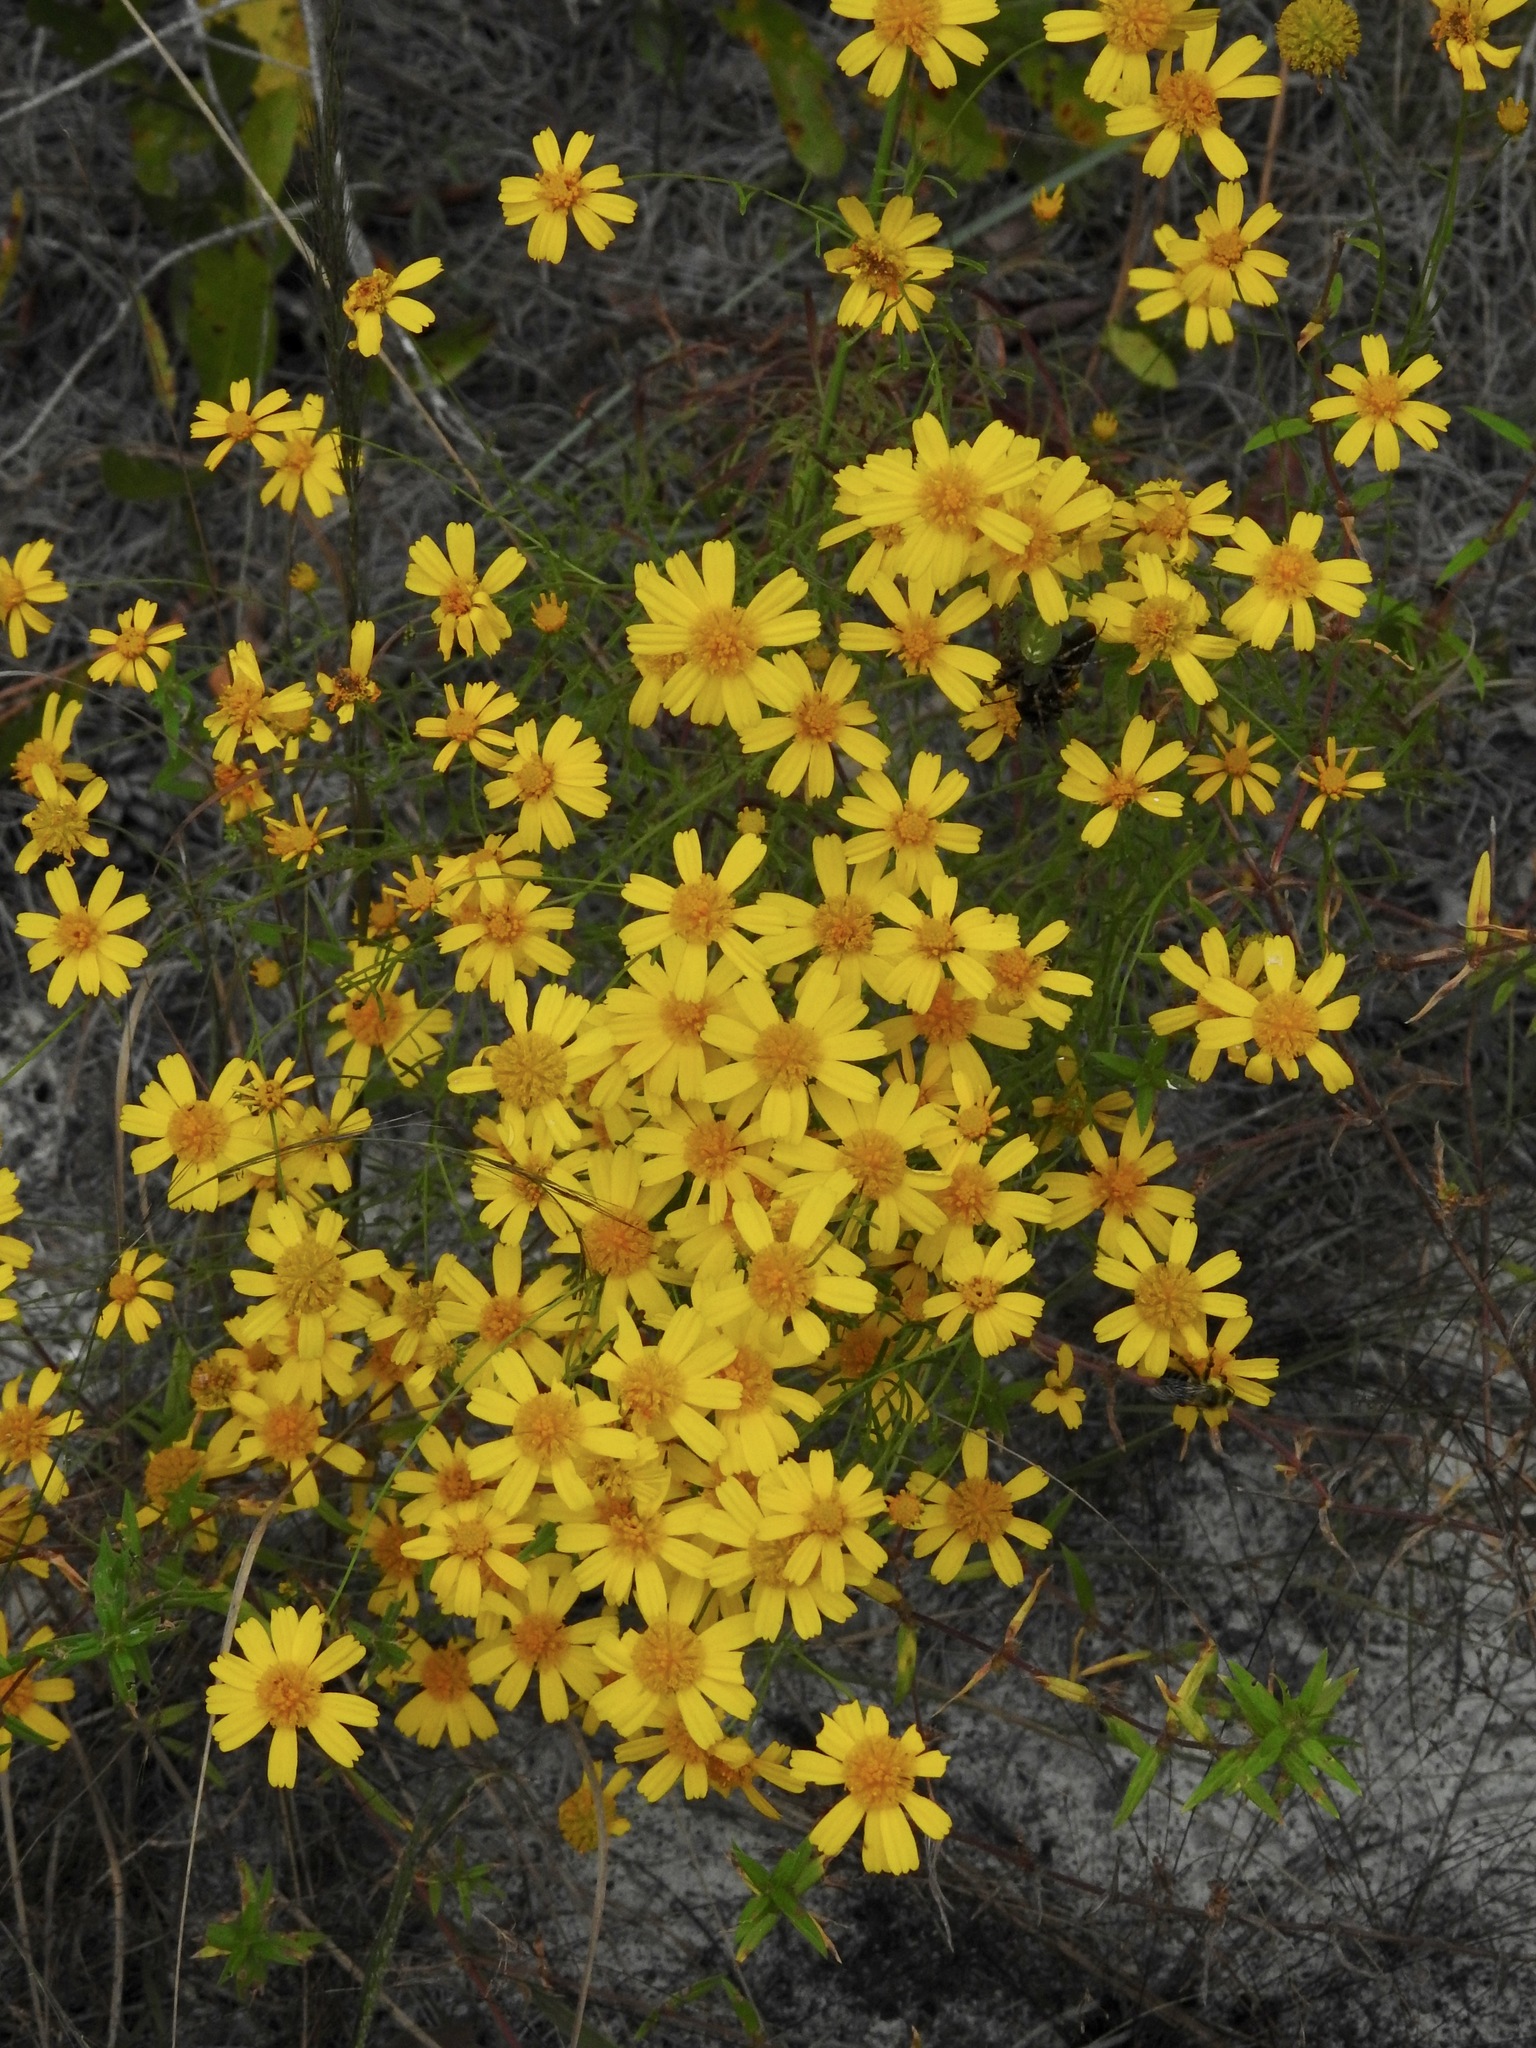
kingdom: Plantae
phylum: Tracheophyta
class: Magnoliopsida
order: Asterales
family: Asteraceae
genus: Balduina
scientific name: Balduina angustifolia
